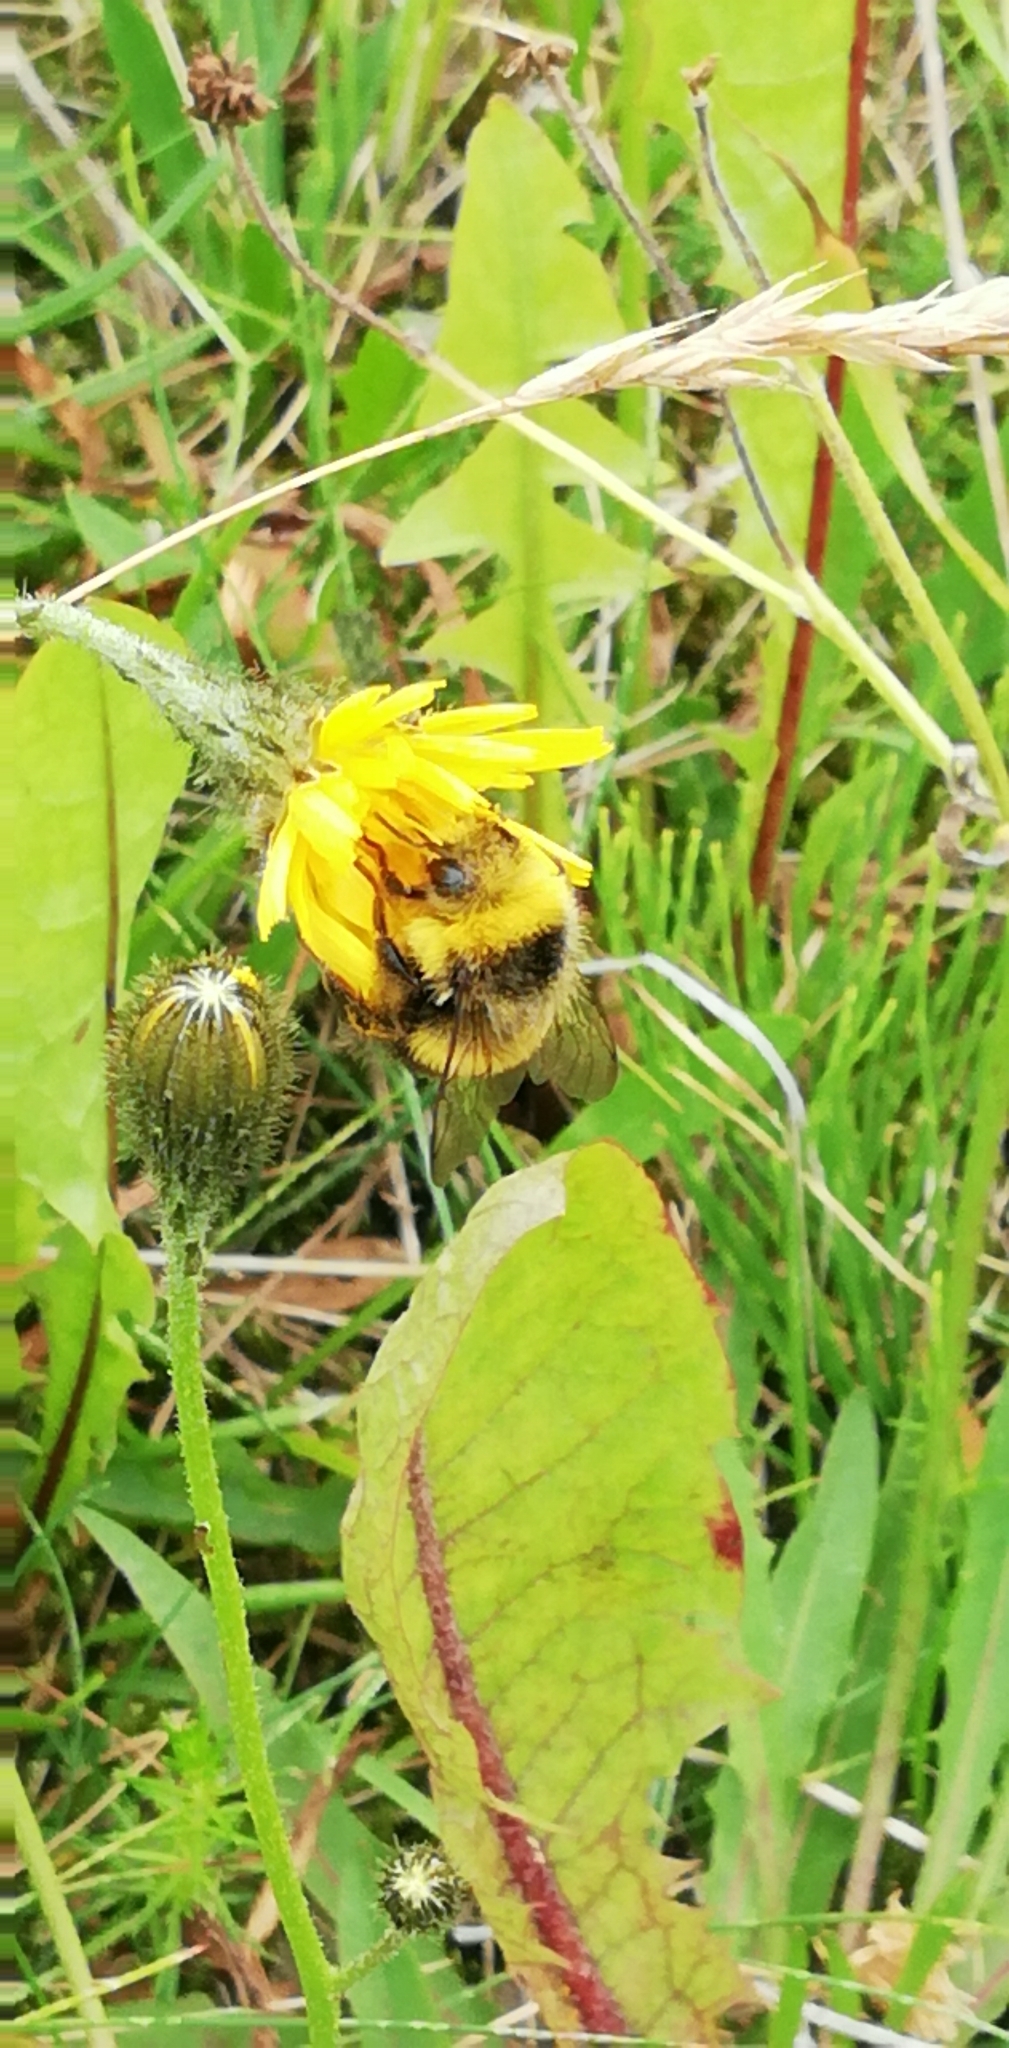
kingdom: Animalia
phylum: Arthropoda
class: Insecta
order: Hymenoptera
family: Apidae
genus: Bombus
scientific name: Bombus lucorum
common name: White-tailed bumblebee
